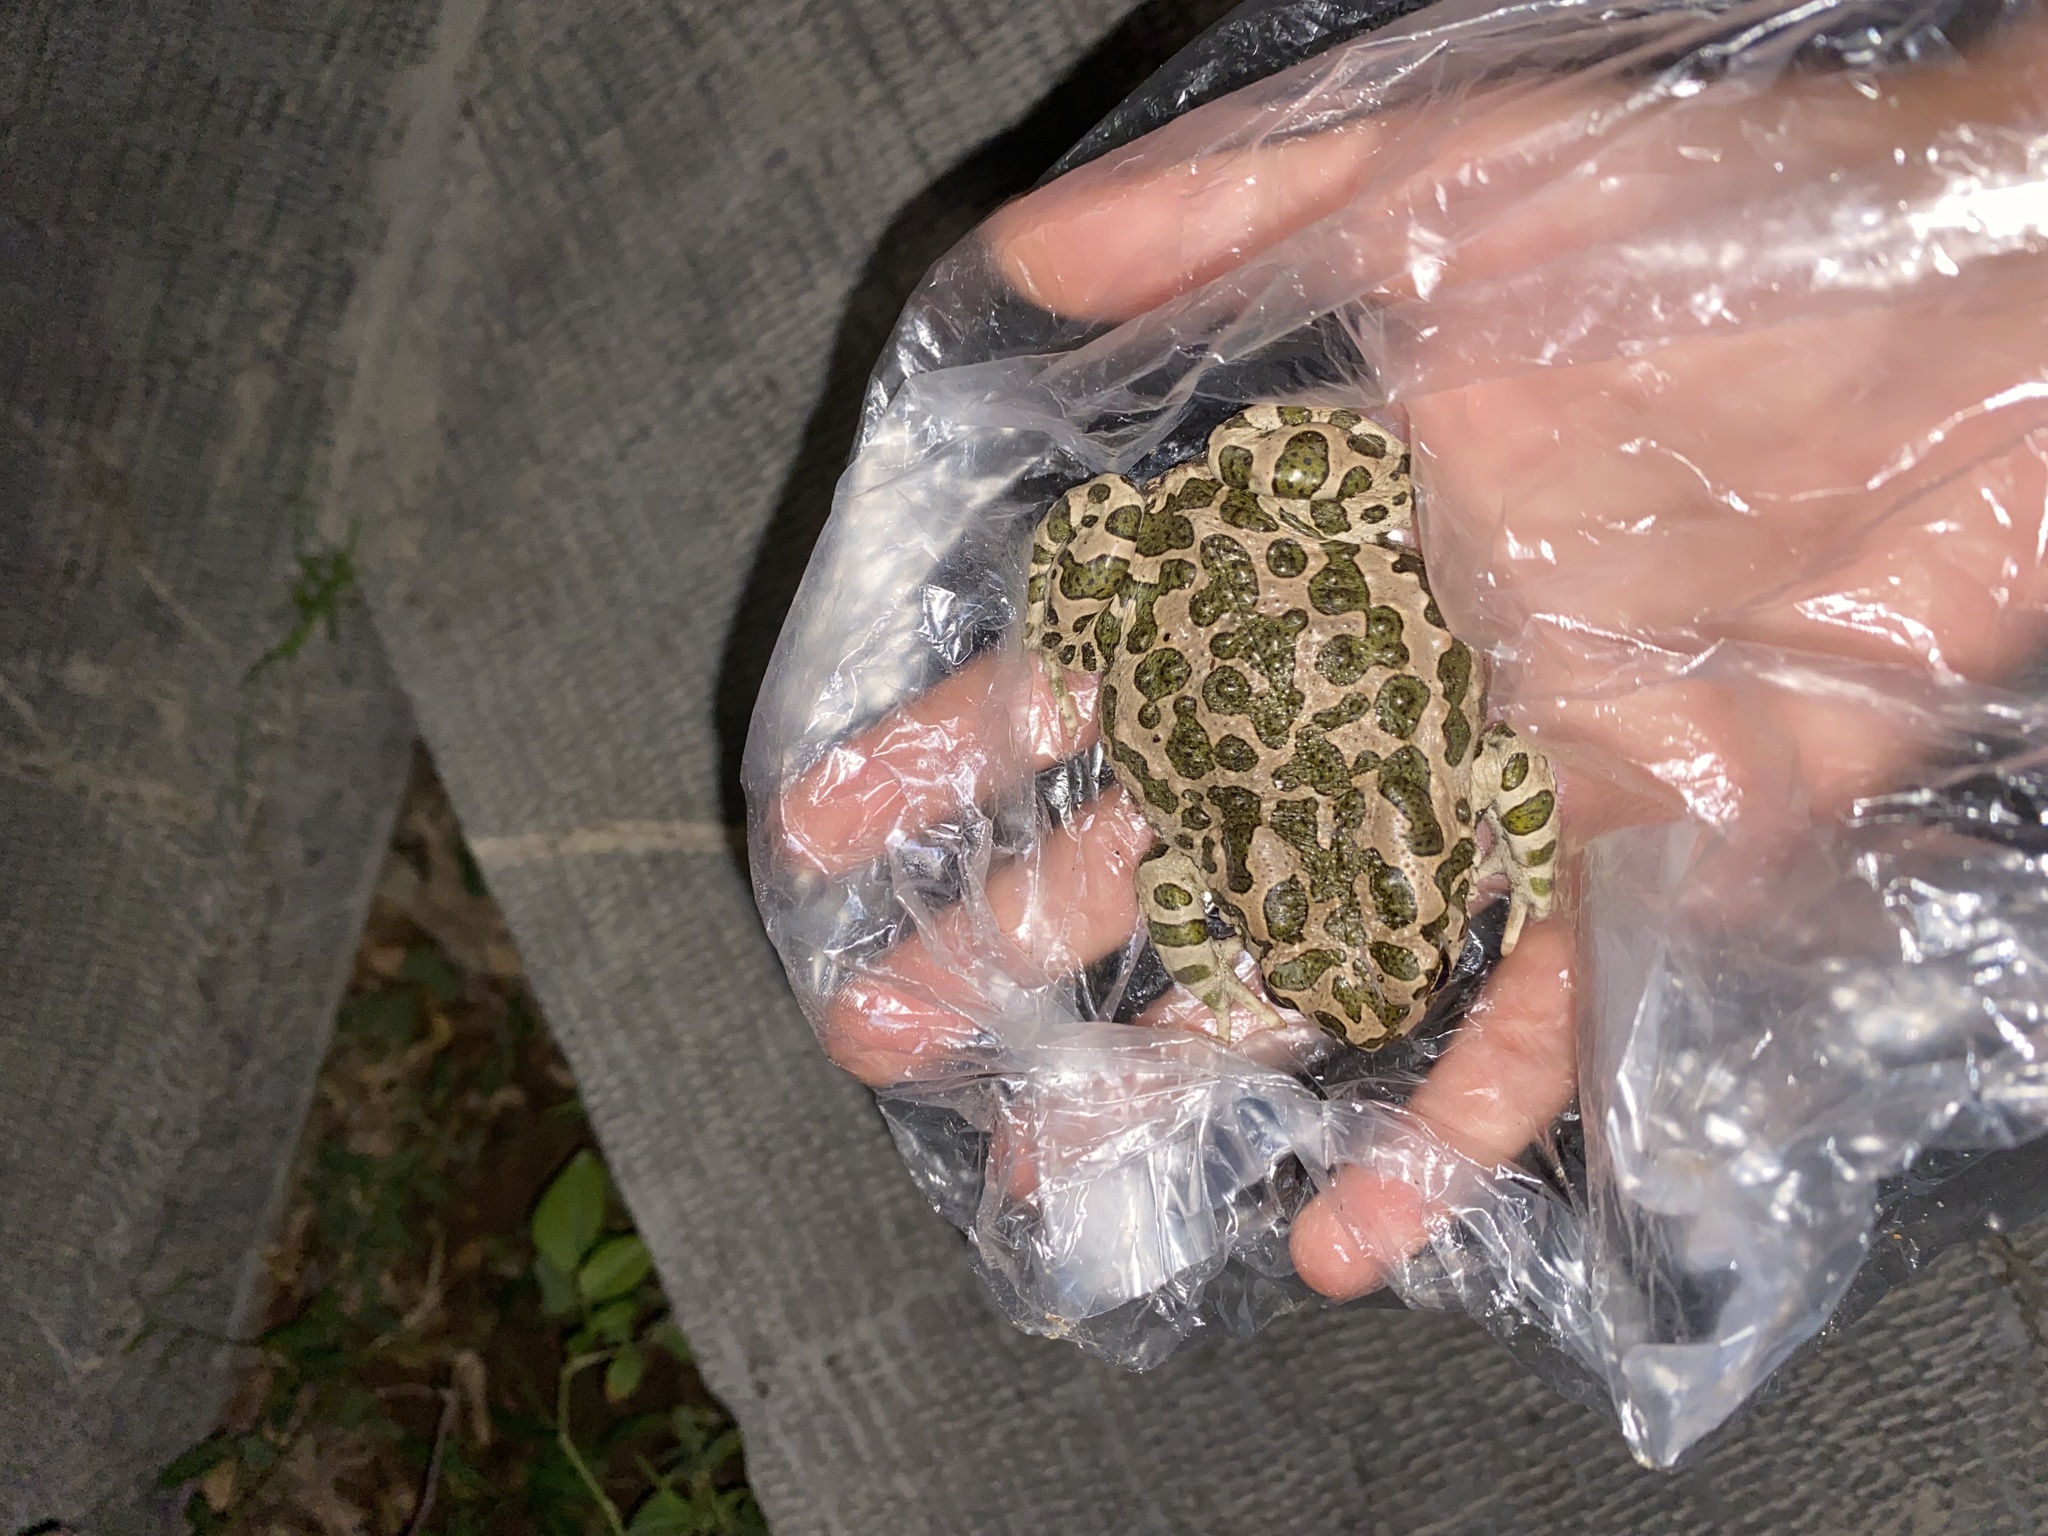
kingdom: Animalia
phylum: Chordata
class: Amphibia
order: Anura
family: Bufonidae
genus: Bufotes
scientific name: Bufotes viridis
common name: European green toad
